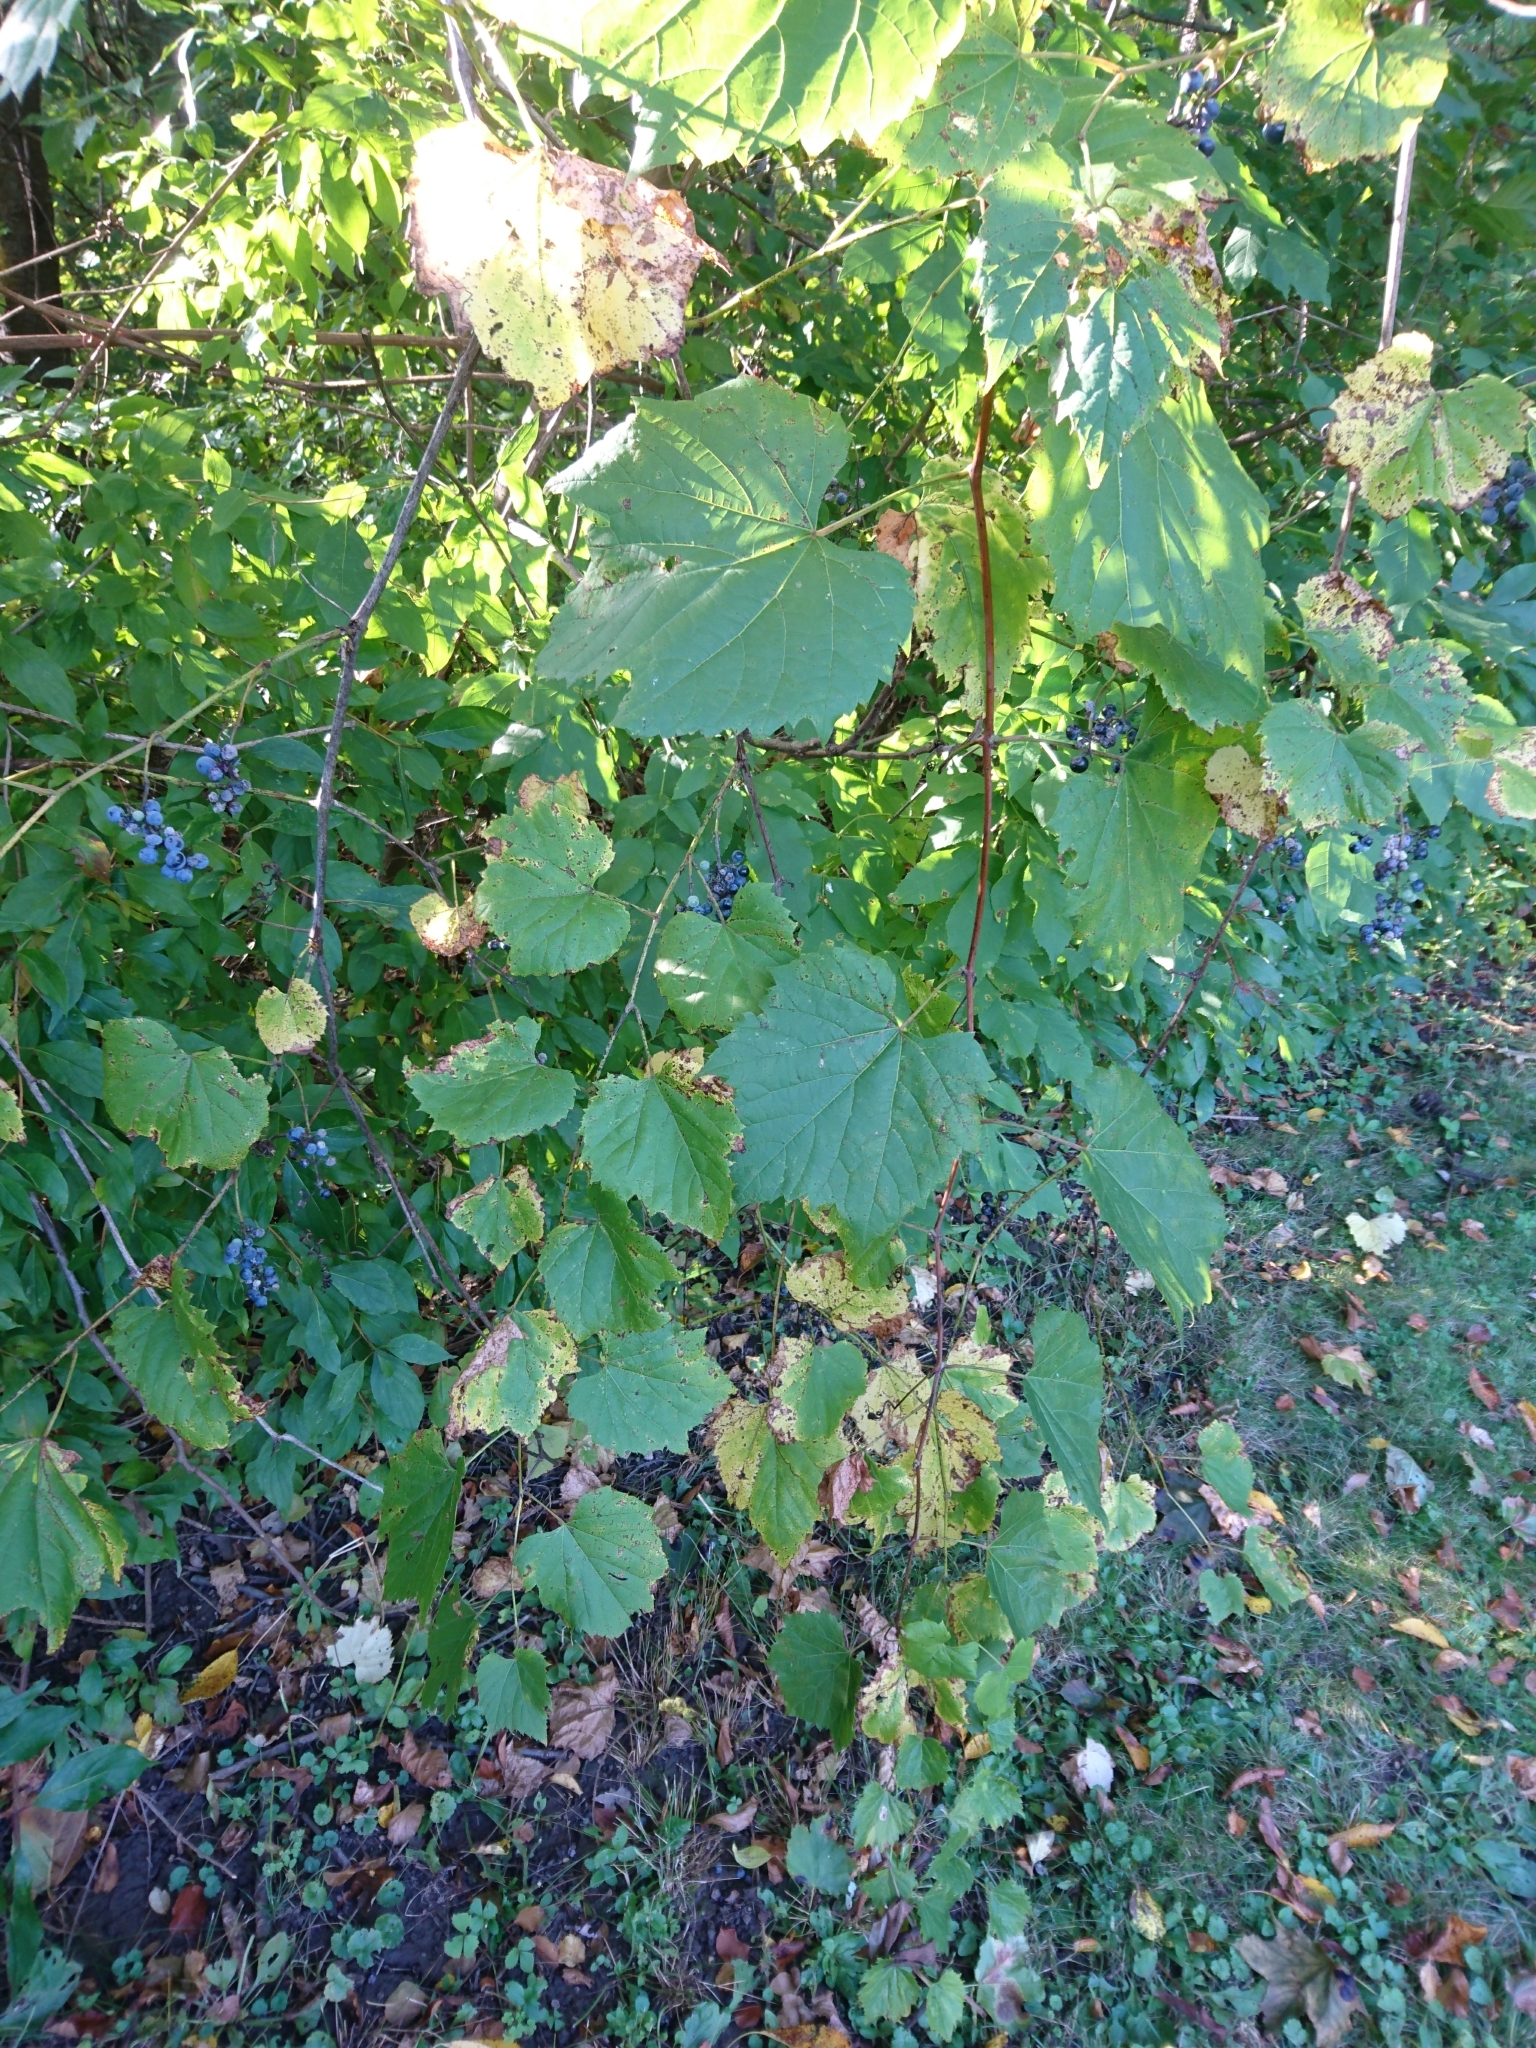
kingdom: Plantae
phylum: Tracheophyta
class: Magnoliopsida
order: Vitales
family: Vitaceae
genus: Vitis
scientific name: Vitis riparia
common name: Frost grape
